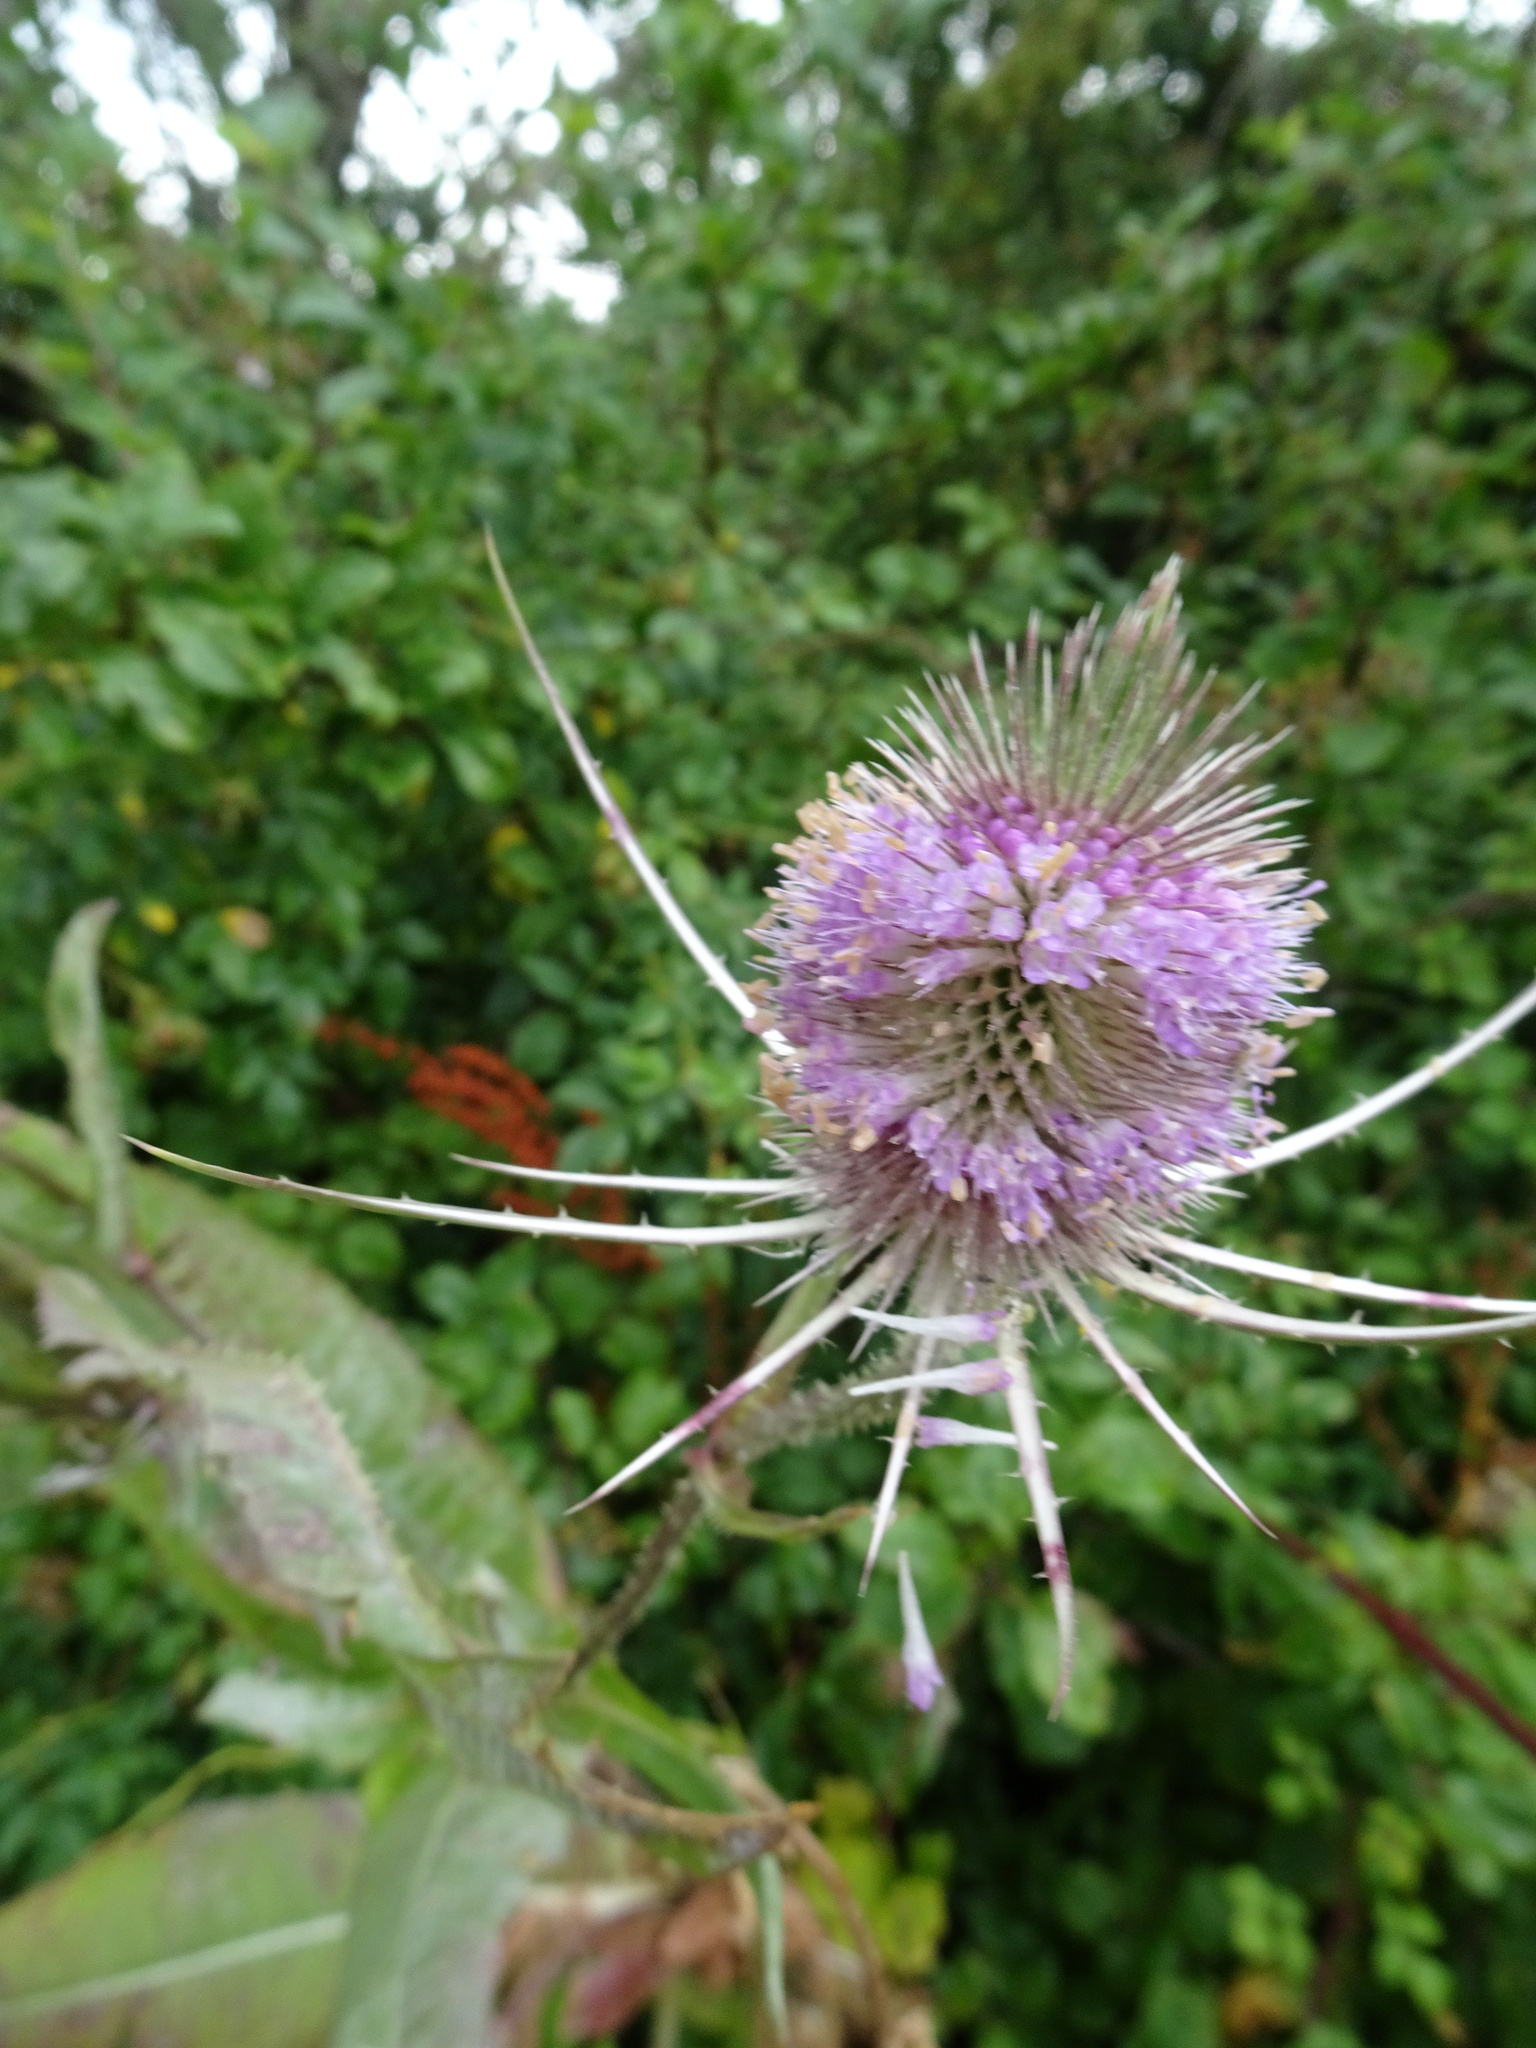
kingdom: Plantae
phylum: Tracheophyta
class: Magnoliopsida
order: Dipsacales
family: Caprifoliaceae
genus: Dipsacus
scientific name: Dipsacus fullonum
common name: Teasel
